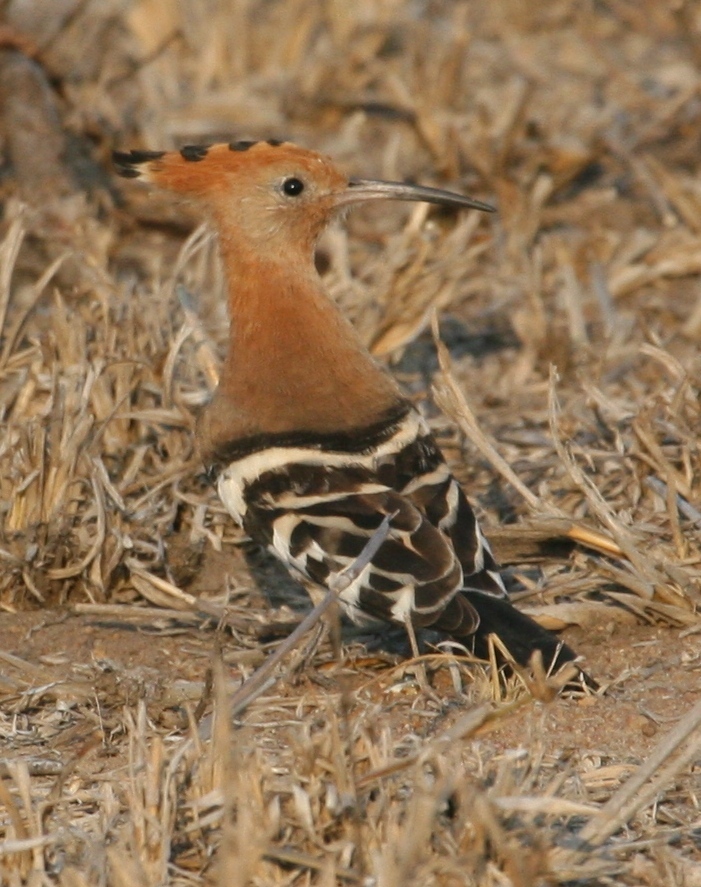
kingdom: Animalia
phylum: Chordata
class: Aves
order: Bucerotiformes
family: Upupidae
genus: Upupa
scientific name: Upupa epops
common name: Eurasian hoopoe
